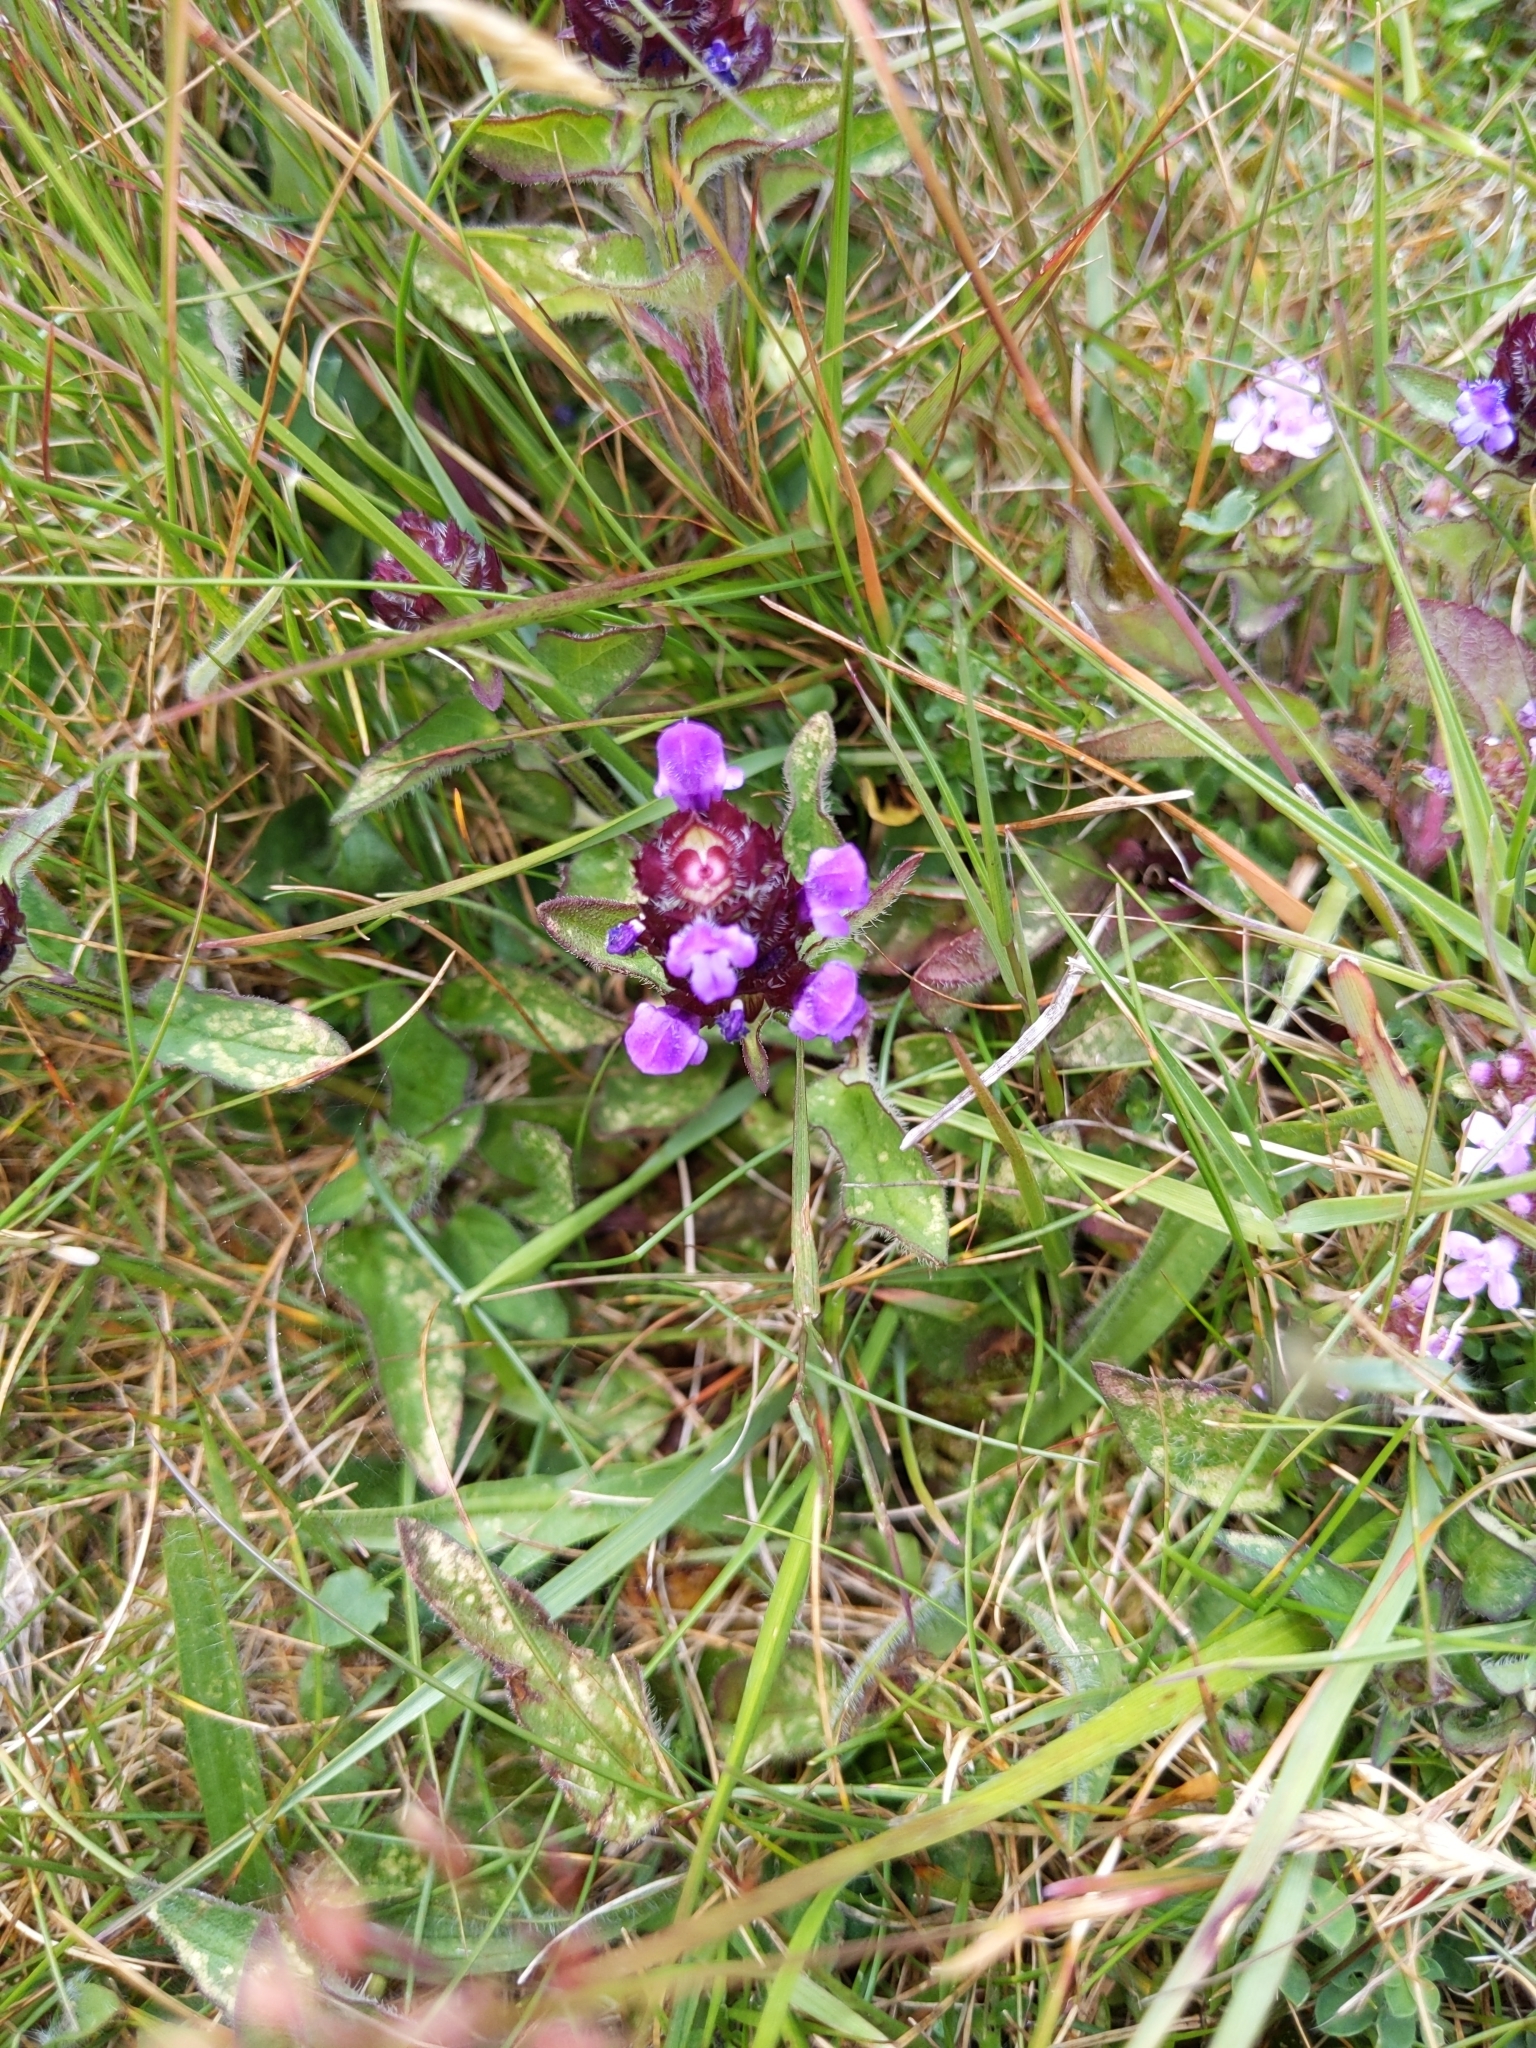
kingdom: Plantae
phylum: Tracheophyta
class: Magnoliopsida
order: Lamiales
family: Lamiaceae
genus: Prunella
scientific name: Prunella vulgaris
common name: Heal-all
